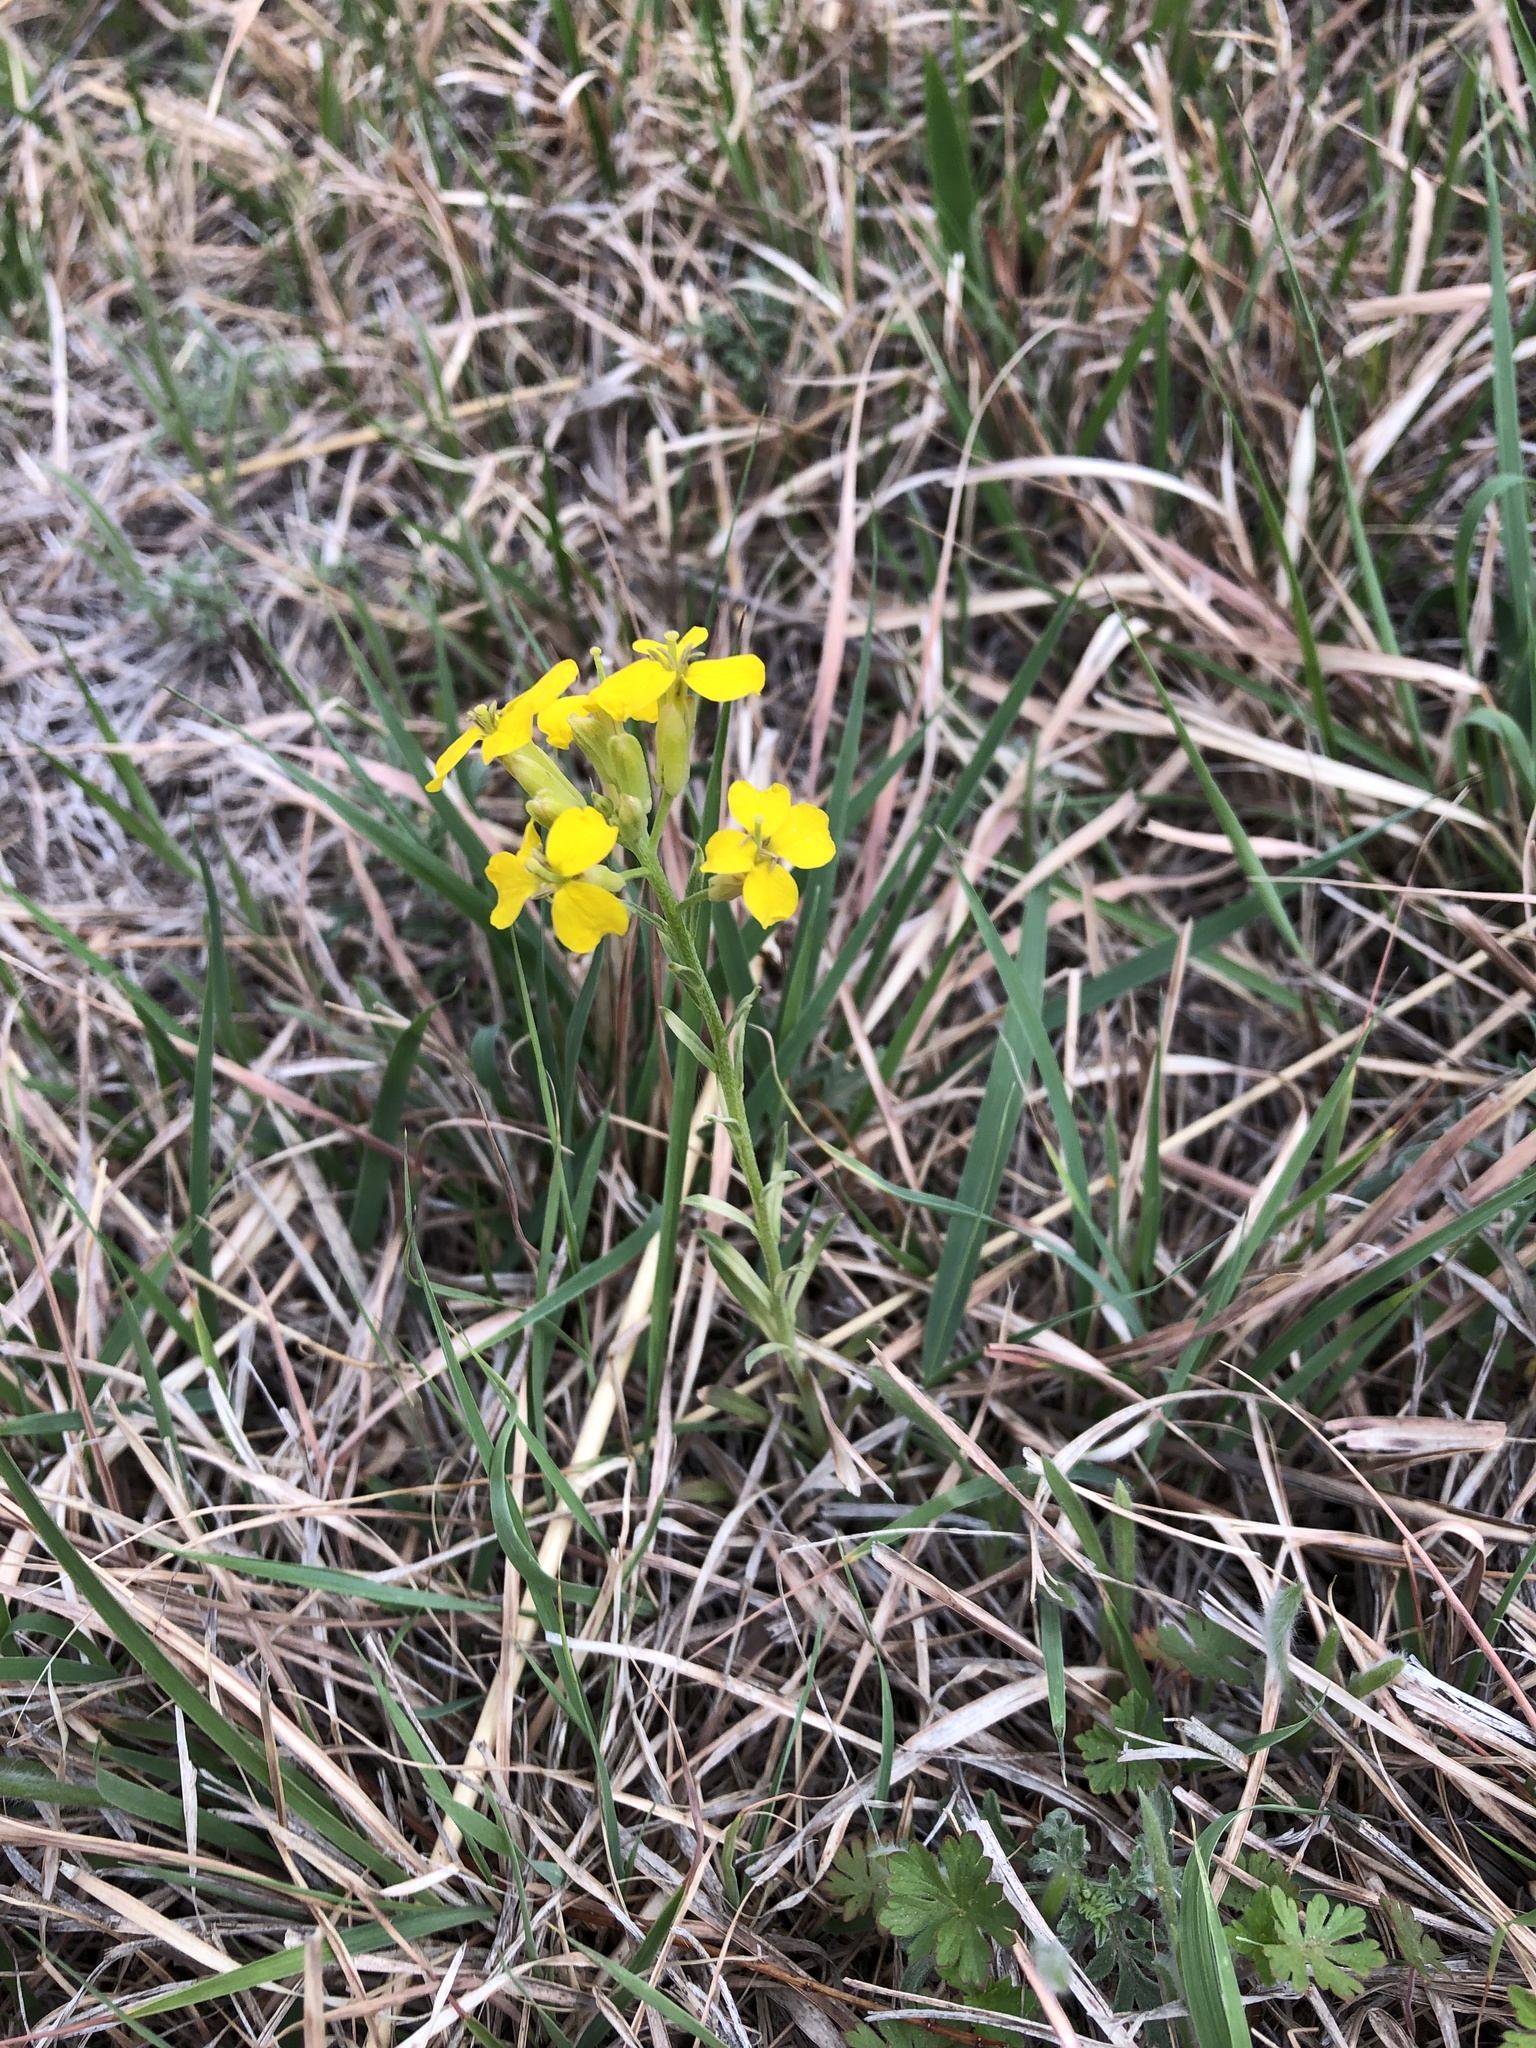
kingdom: Plantae
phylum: Tracheophyta
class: Magnoliopsida
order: Brassicales
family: Brassicaceae
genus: Erysimum
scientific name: Erysimum asperum
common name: Western wallflower
